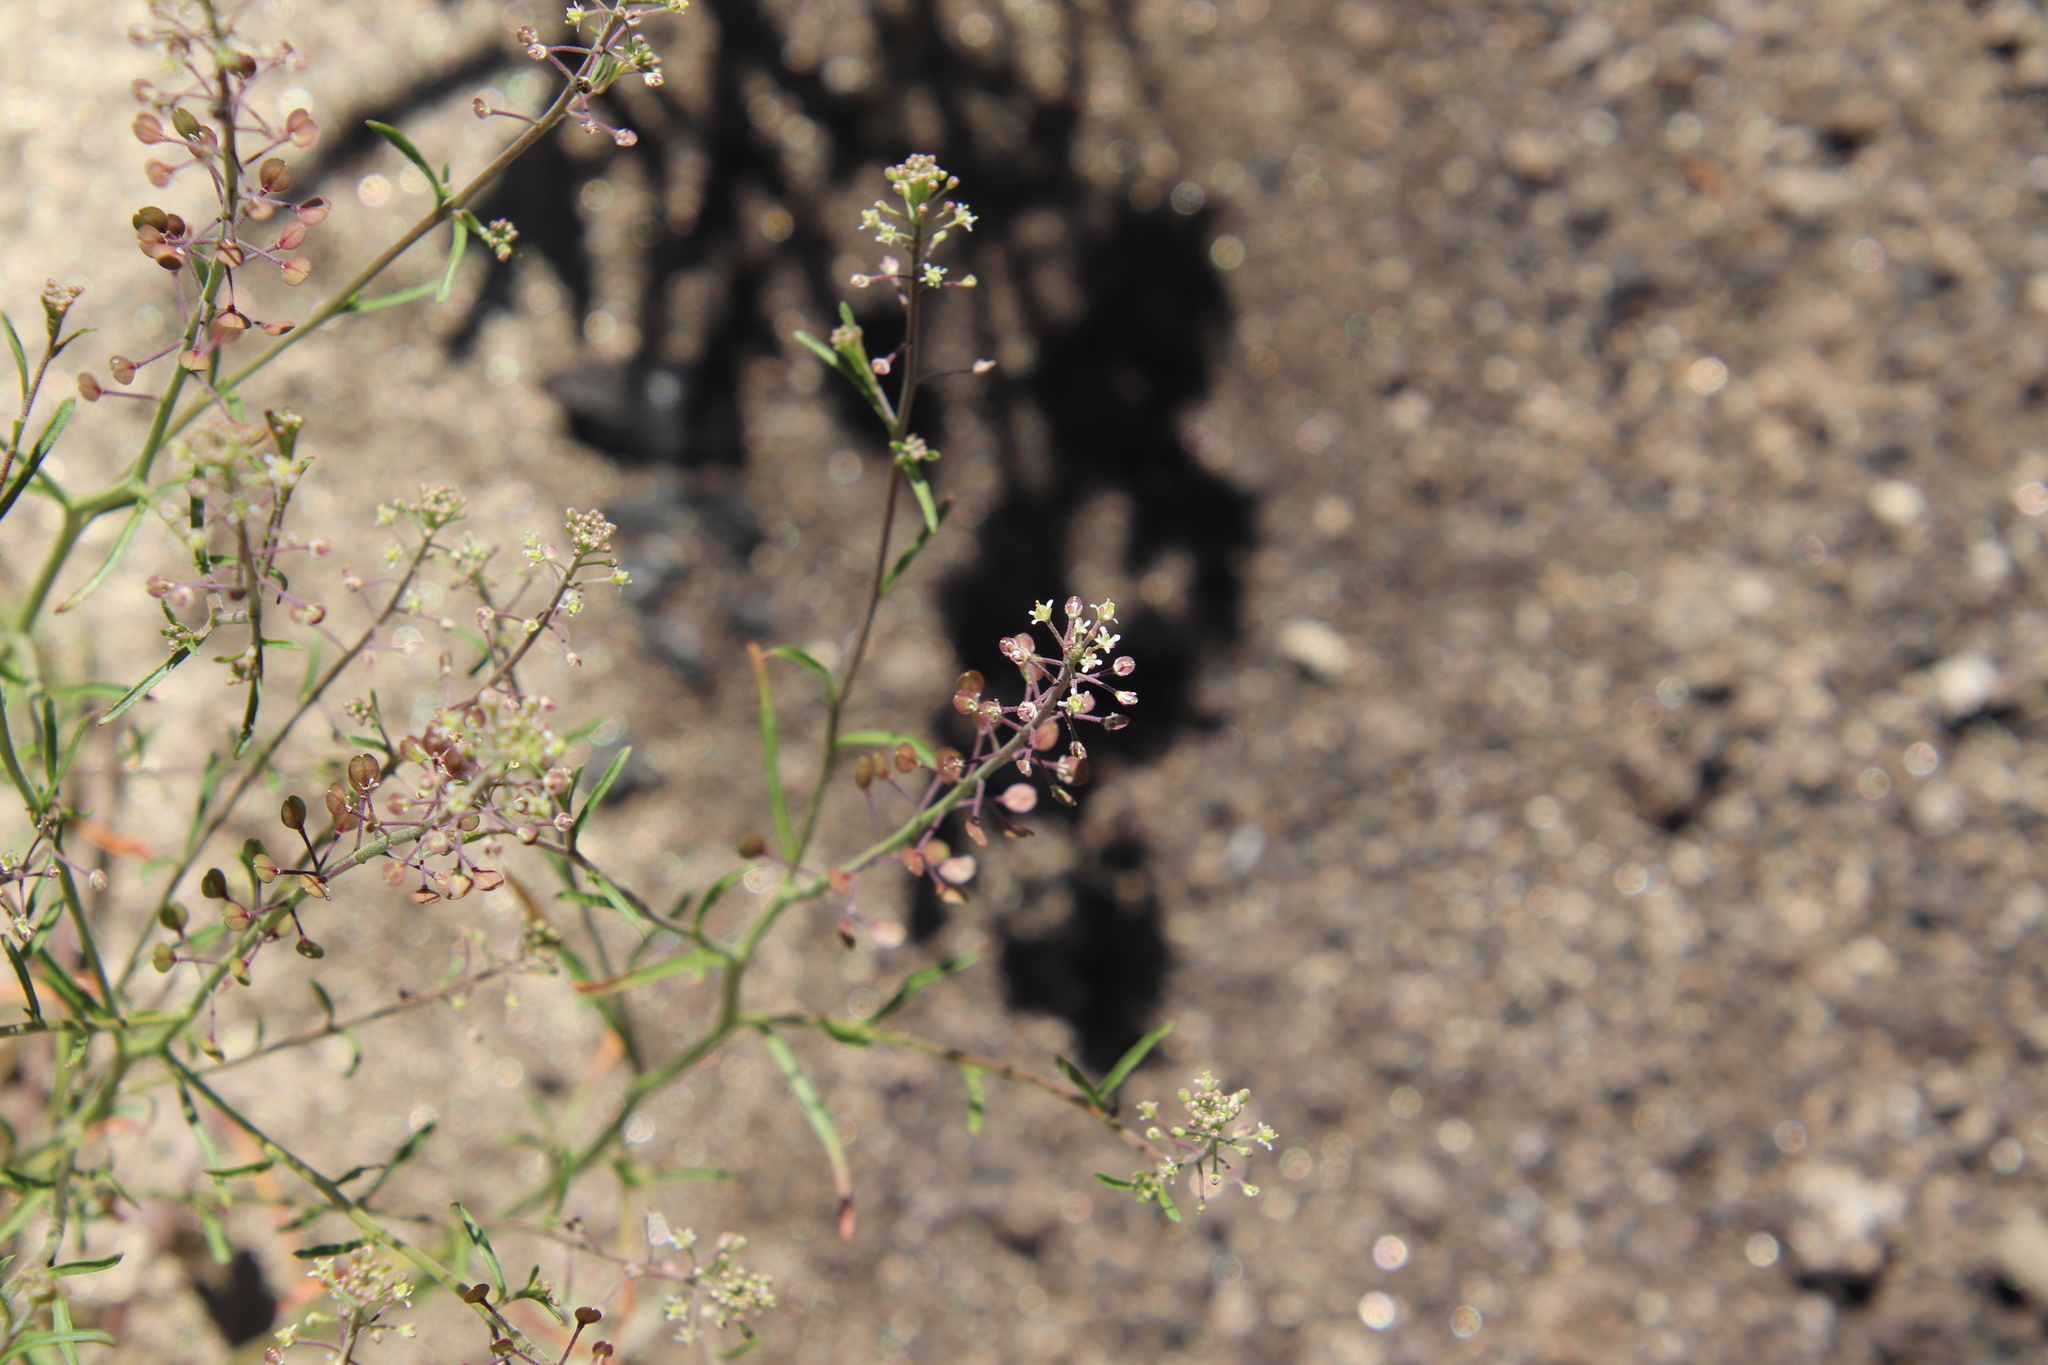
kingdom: Plantae
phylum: Tracheophyta
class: Magnoliopsida
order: Brassicales
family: Brassicaceae
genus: Lepidium
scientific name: Lepidium virginicum
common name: Least pepperwort
